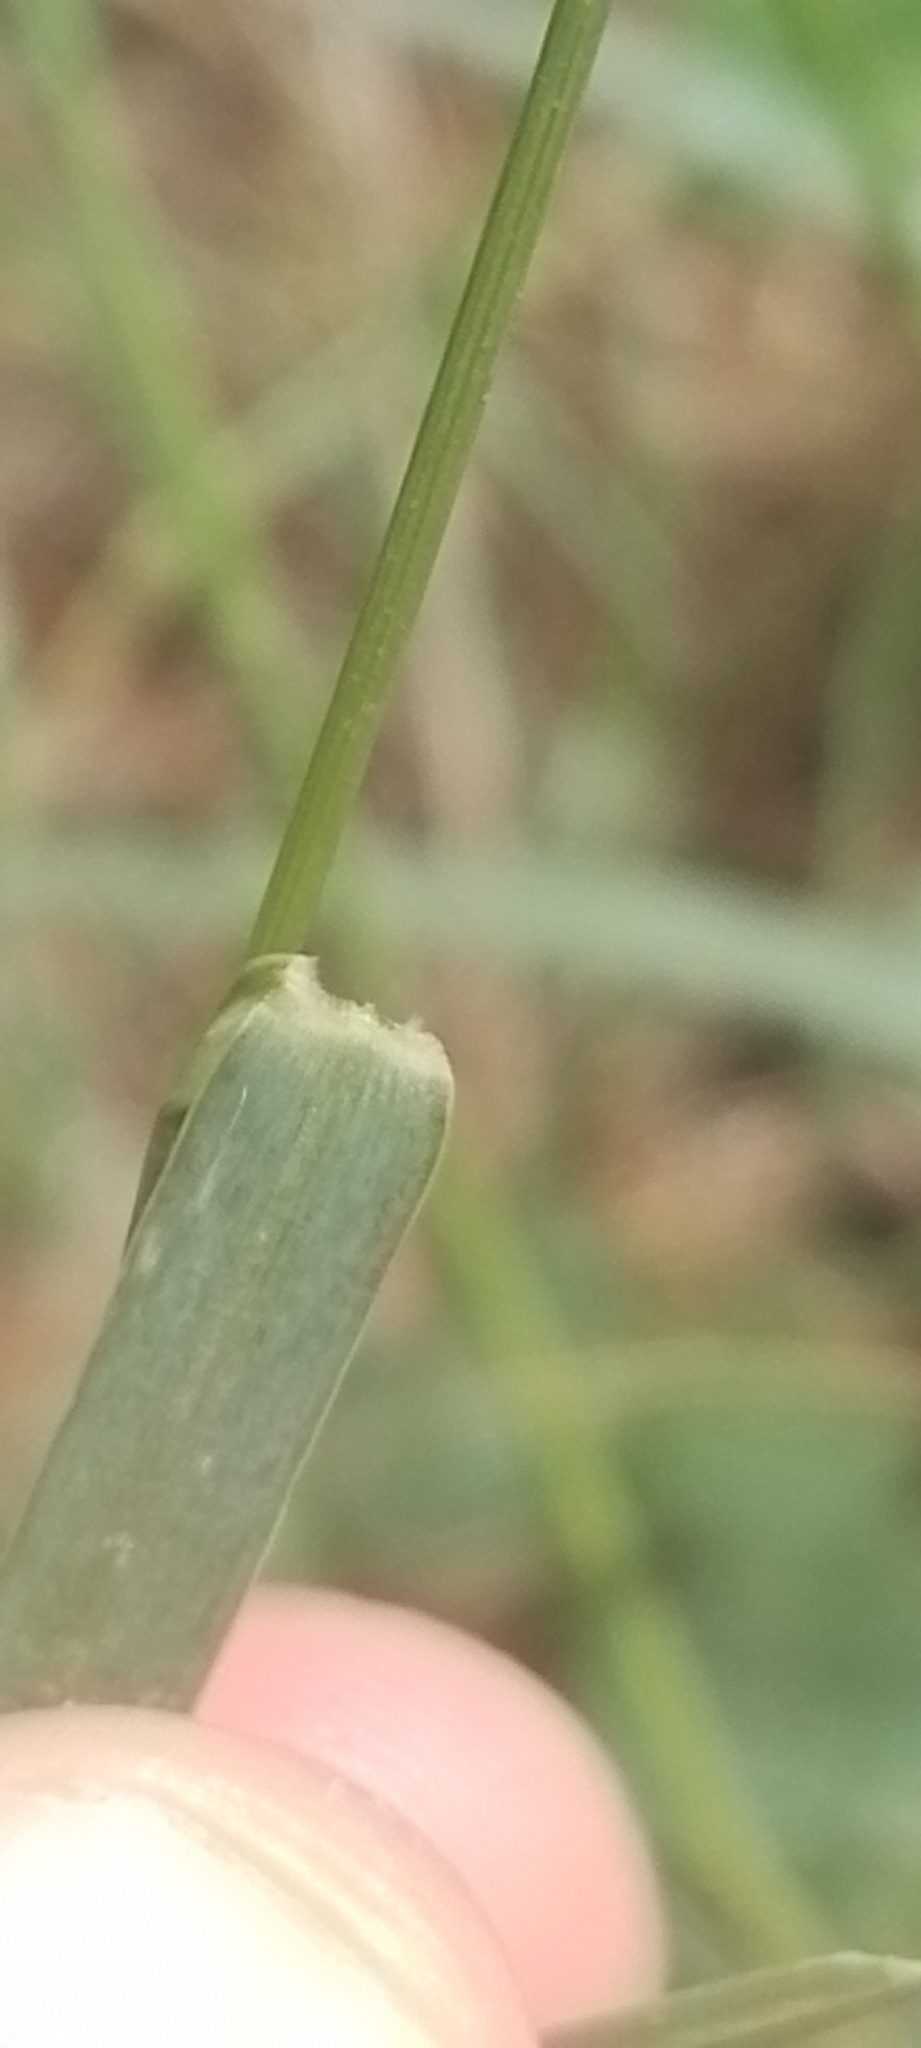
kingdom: Plantae
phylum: Tracheophyta
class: Liliopsida
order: Poales
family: Poaceae
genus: Setaria
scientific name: Setaria parviflora
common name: Knotroot bristle-grass
